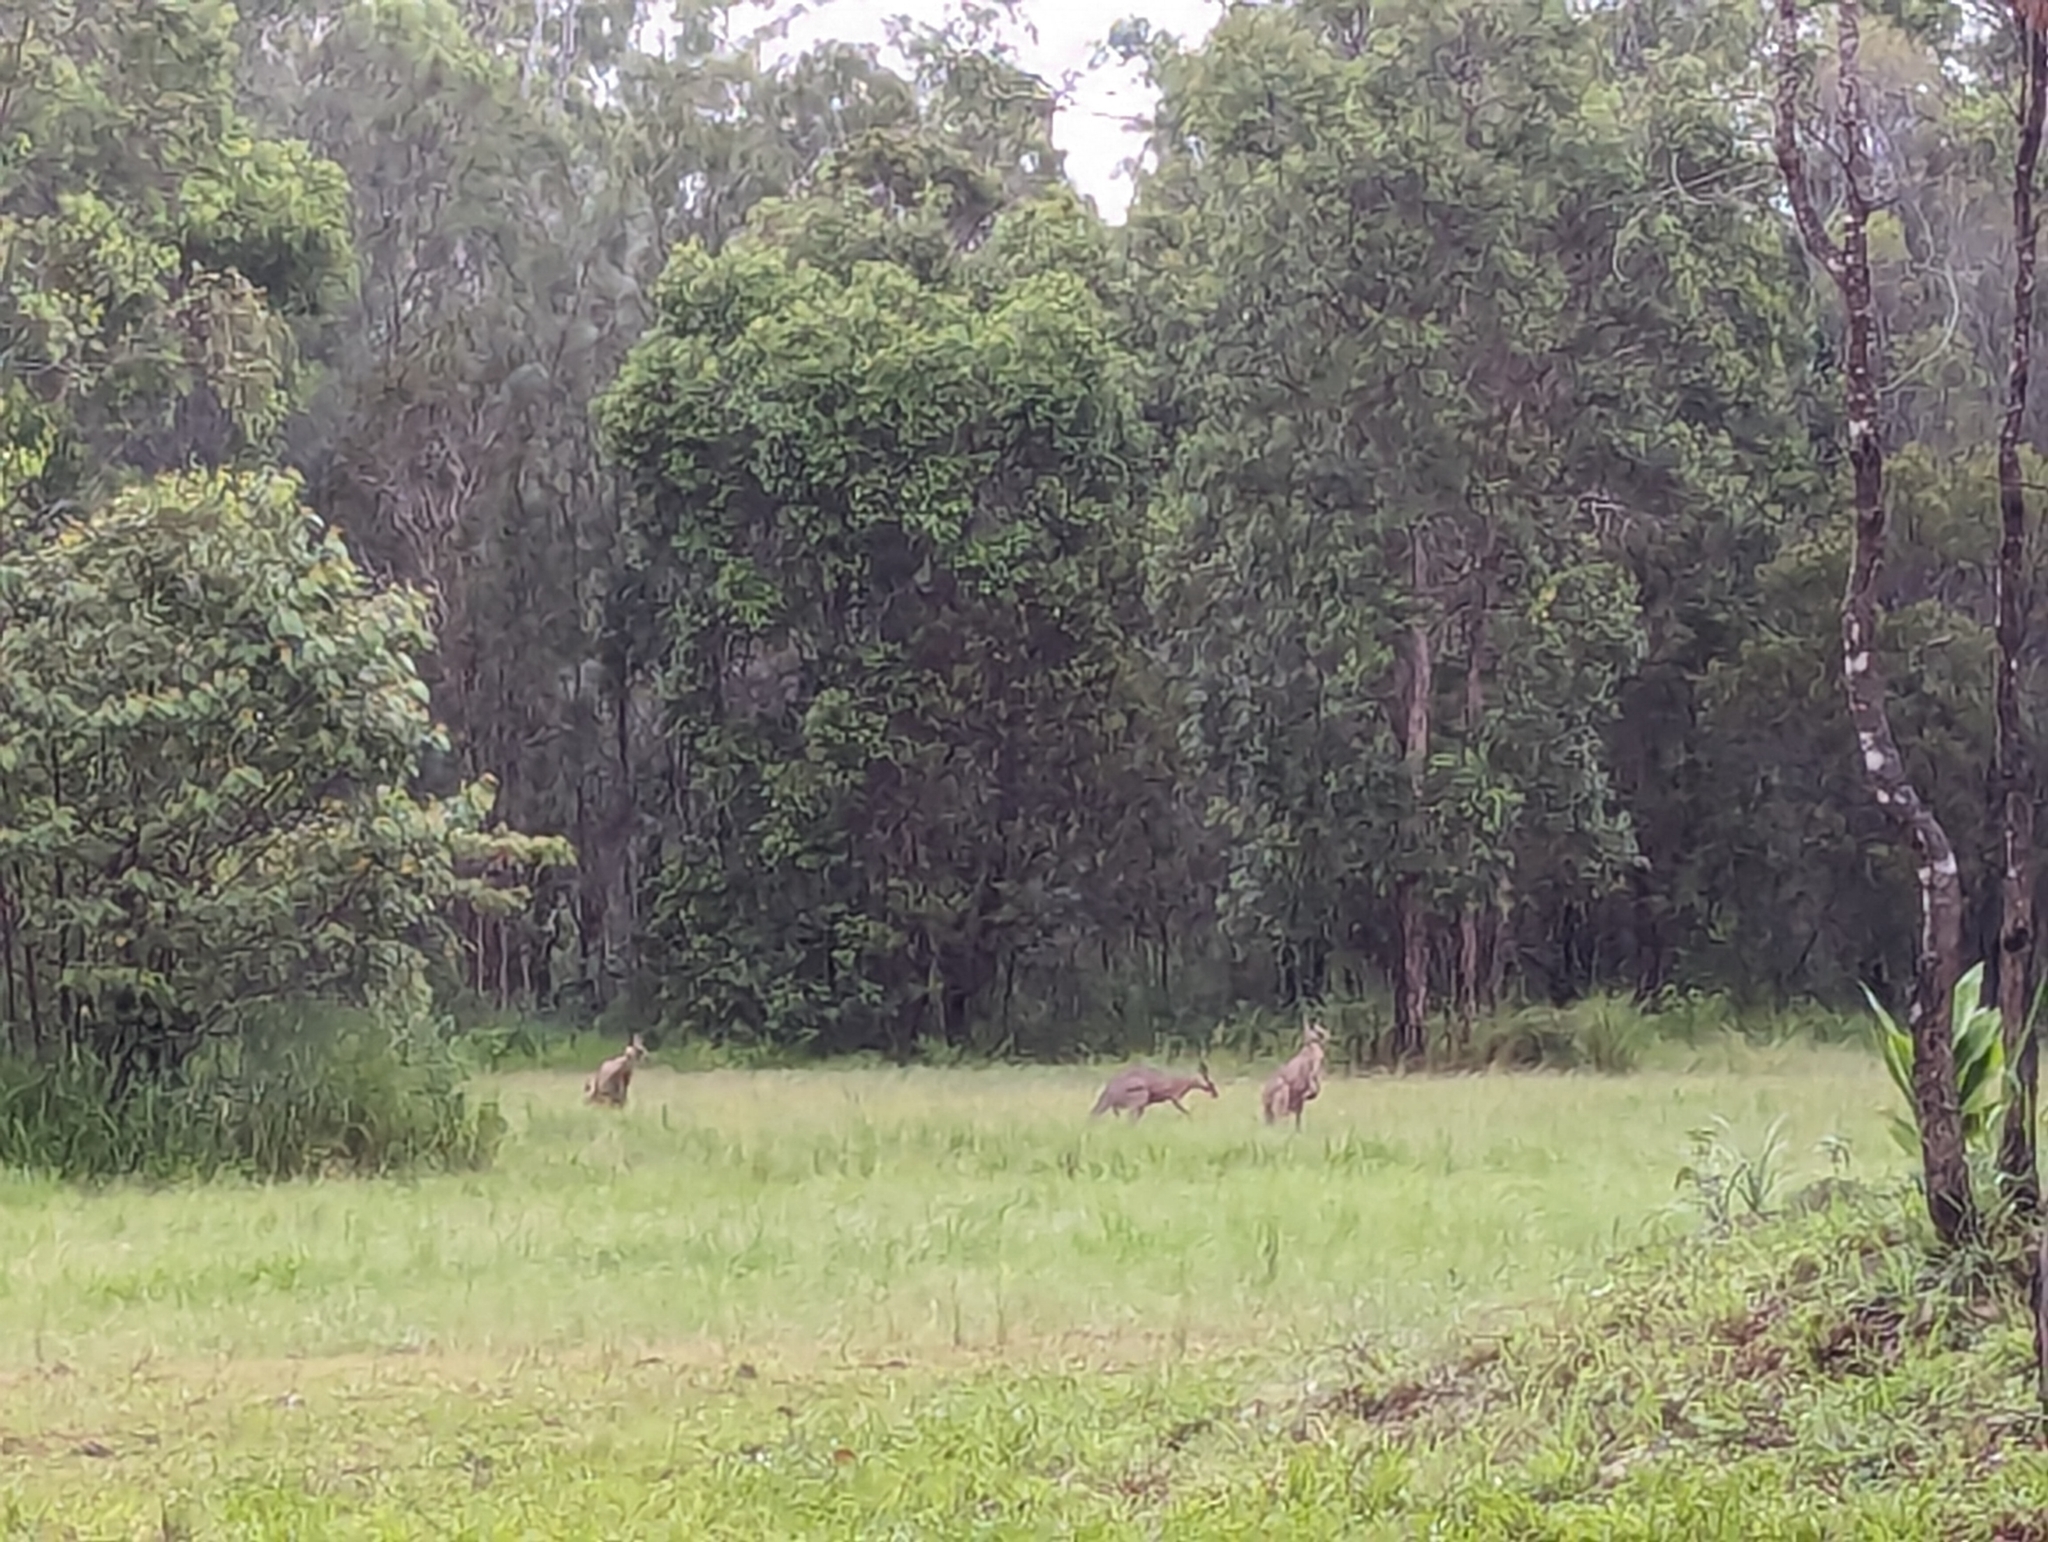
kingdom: Animalia
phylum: Chordata
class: Mammalia
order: Diprotodontia
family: Macropodidae
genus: Macropus
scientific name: Macropus giganteus
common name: Eastern grey kangaroo
